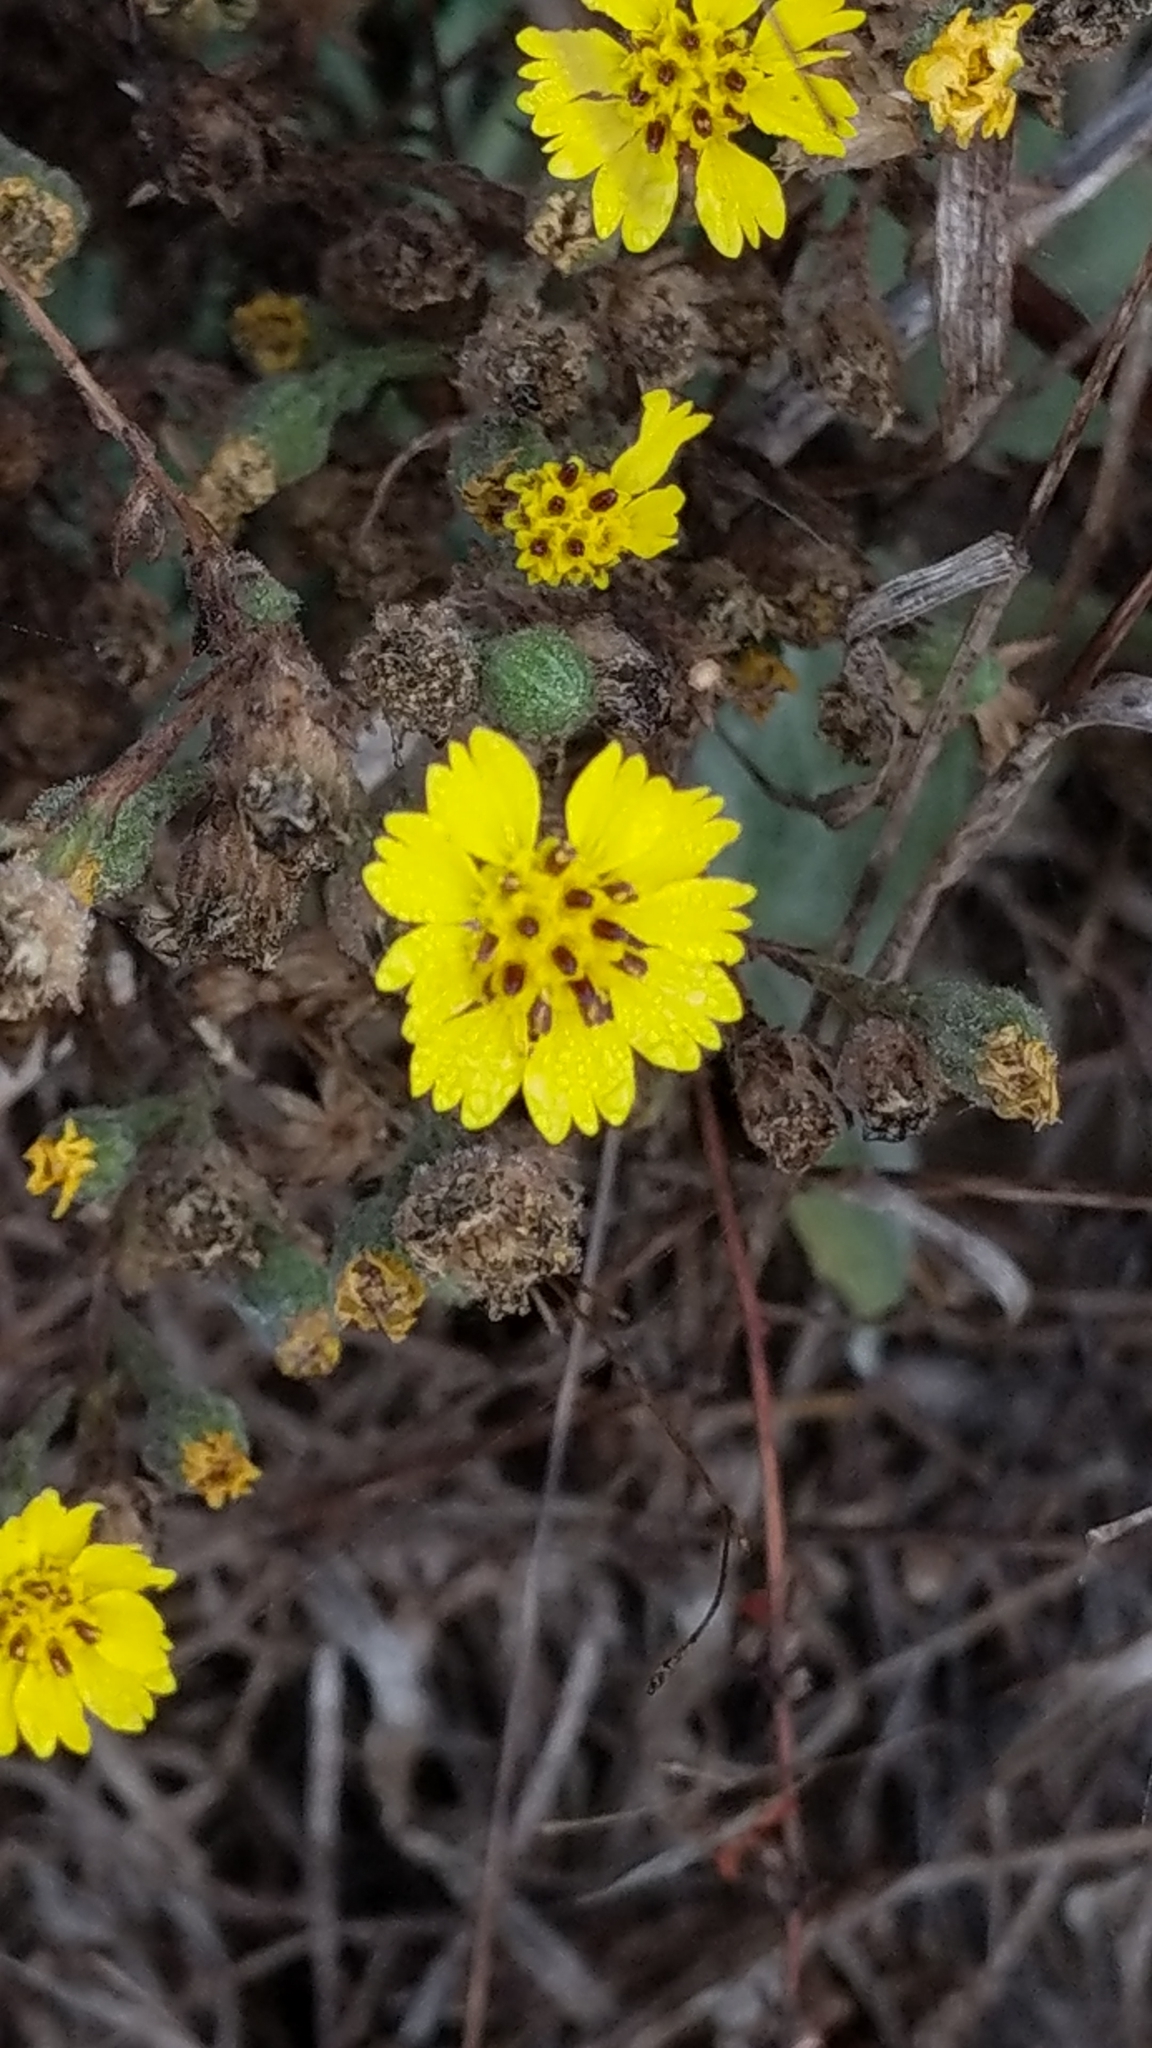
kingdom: Plantae
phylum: Tracheophyta
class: Magnoliopsida
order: Asterales
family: Asteraceae
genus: Deinandra
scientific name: Deinandra increscens
